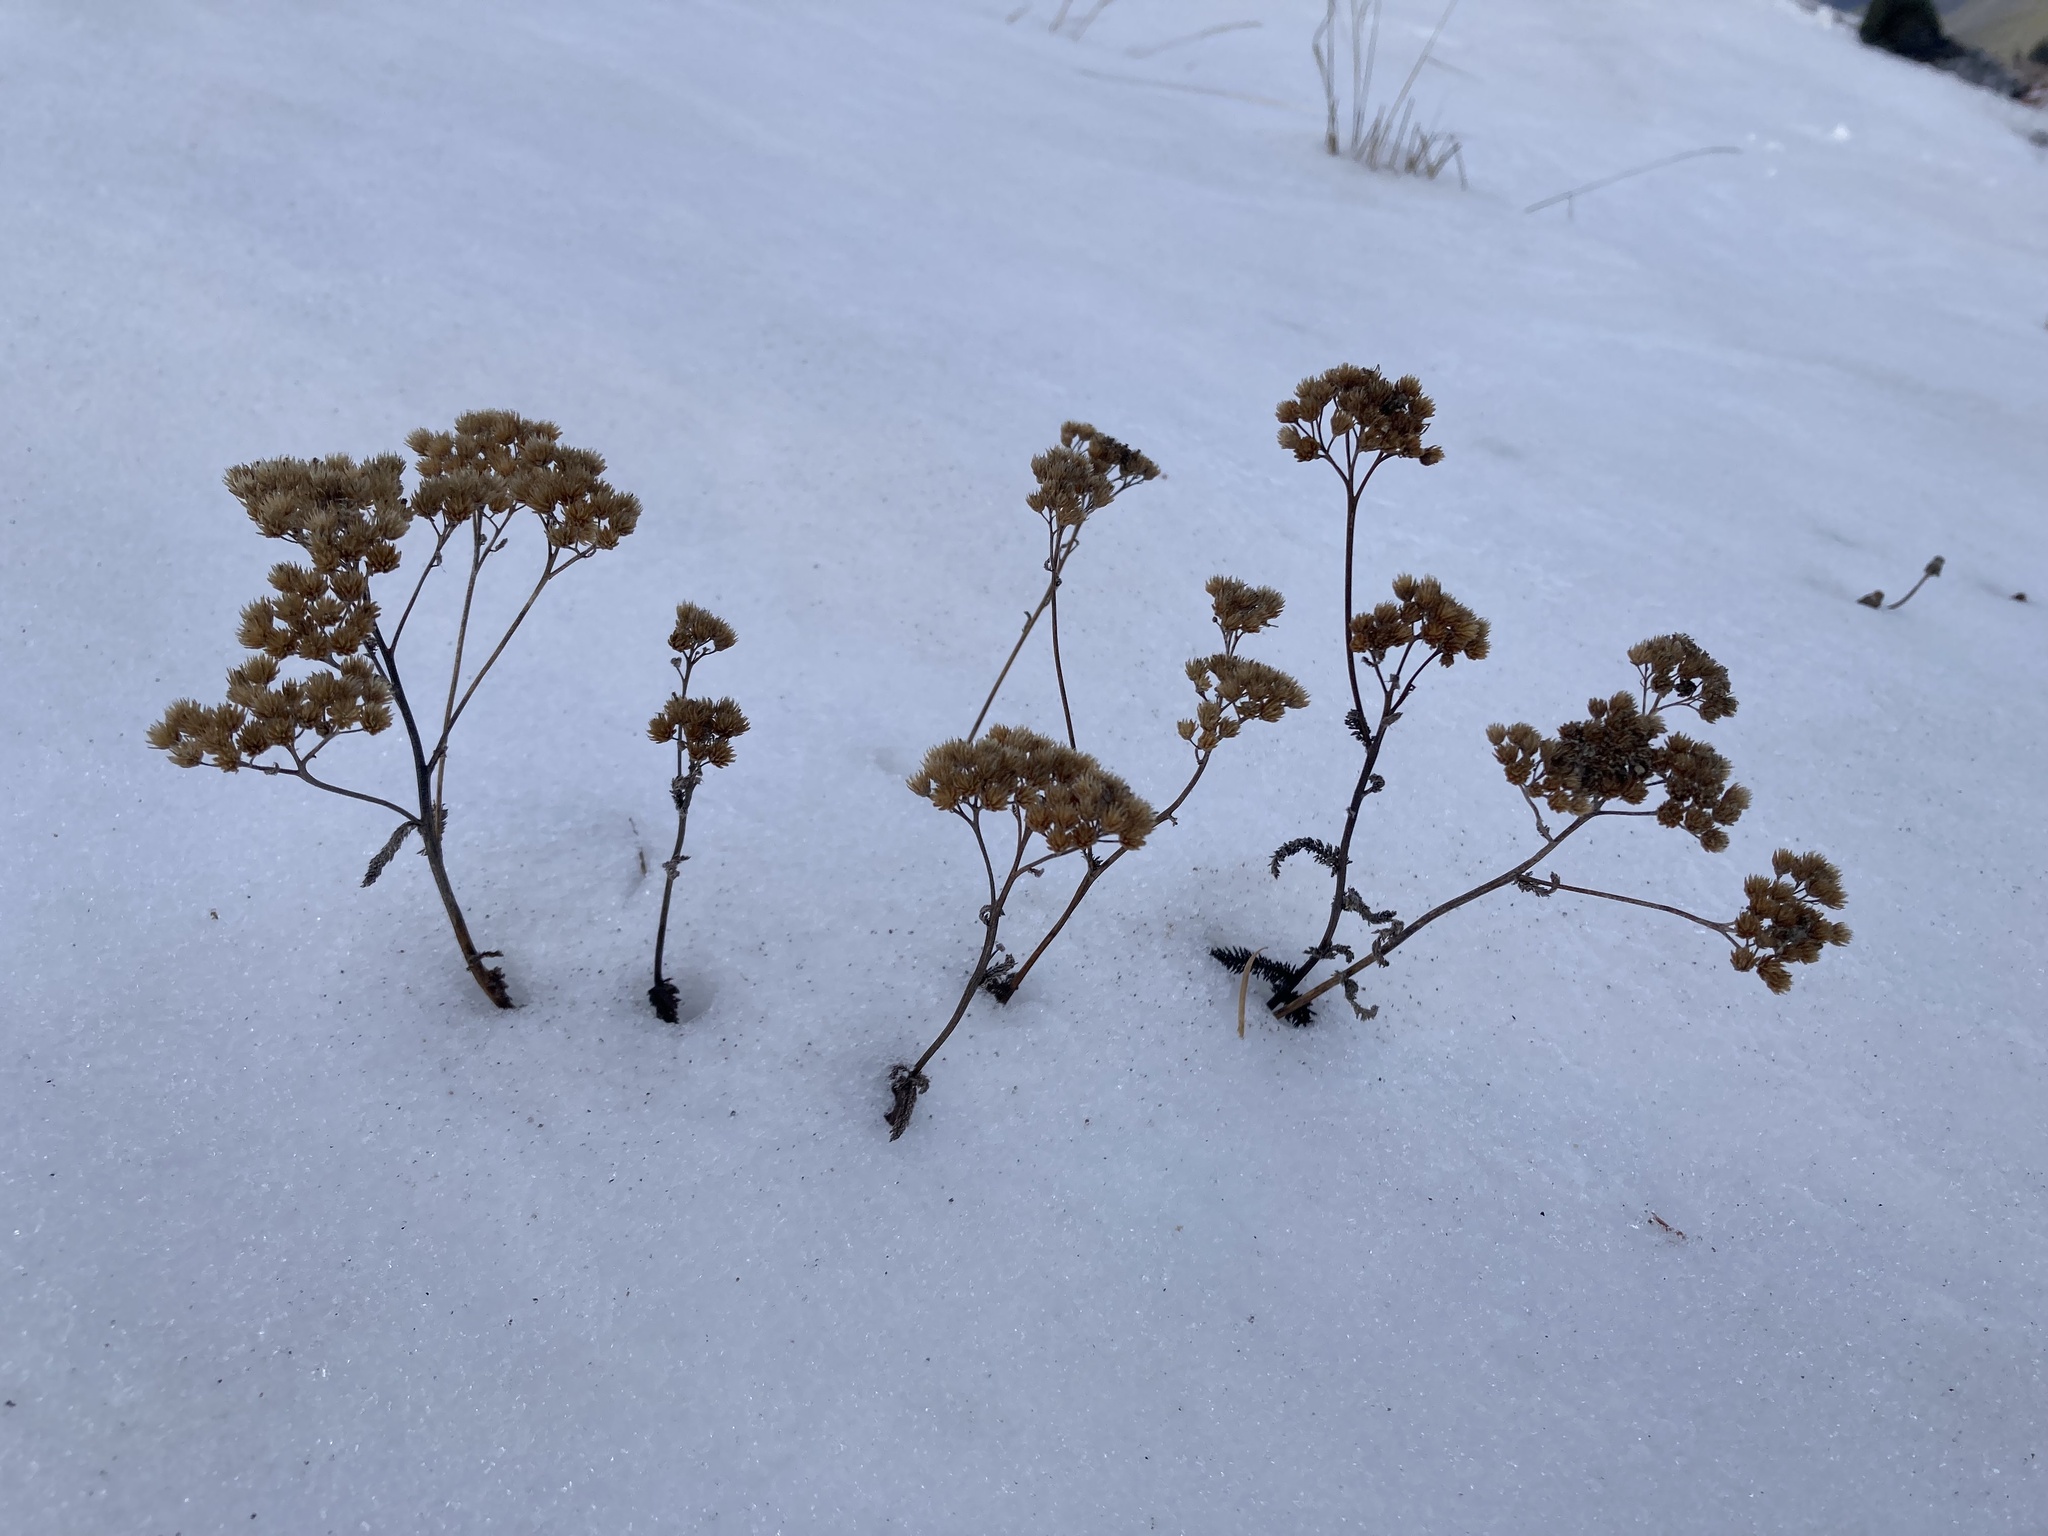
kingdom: Plantae
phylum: Tracheophyta
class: Magnoliopsida
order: Asterales
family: Asteraceae
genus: Achillea
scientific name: Achillea millefolium
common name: Yarrow
